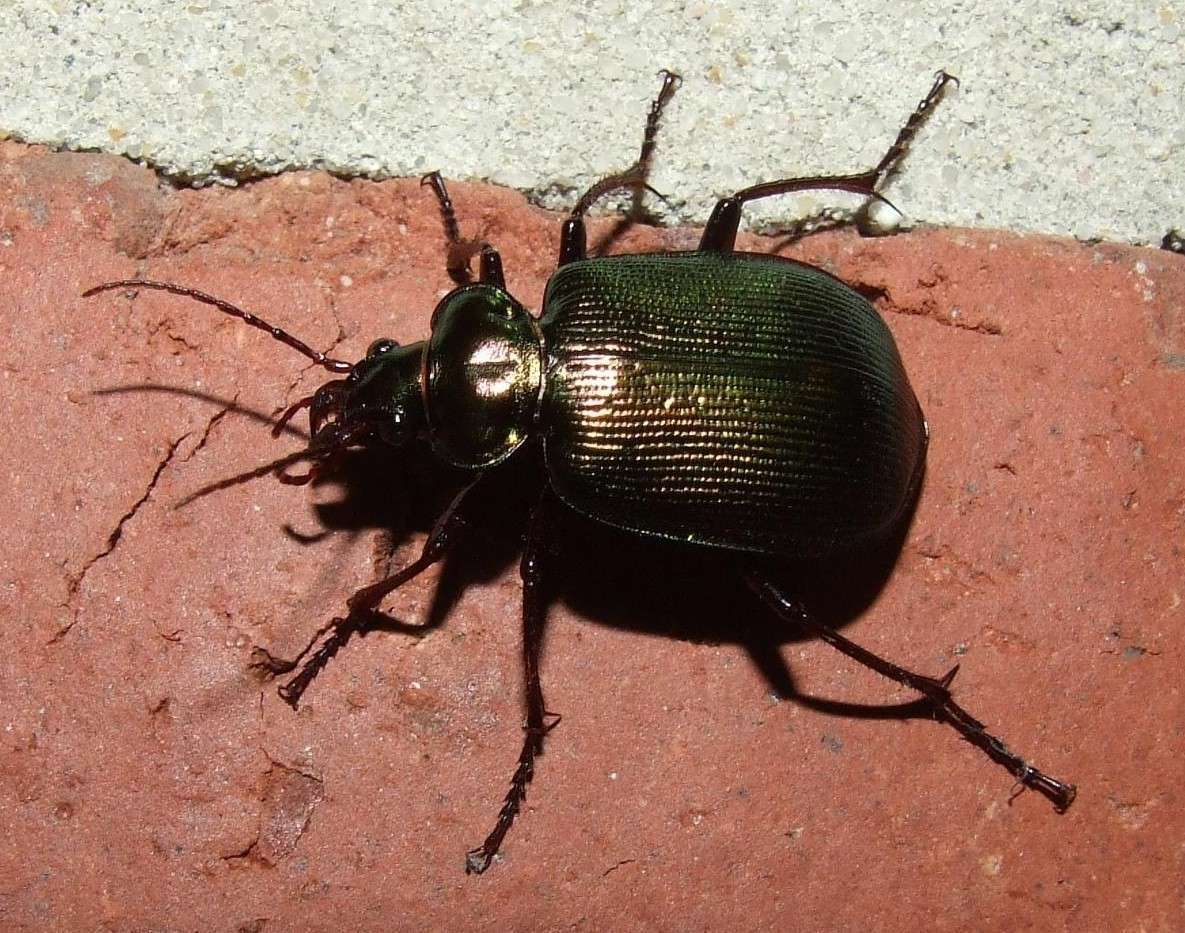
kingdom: Animalia
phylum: Arthropoda
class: Insecta
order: Coleoptera
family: Carabidae
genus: Calosoma
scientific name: Calosoma schayeri
